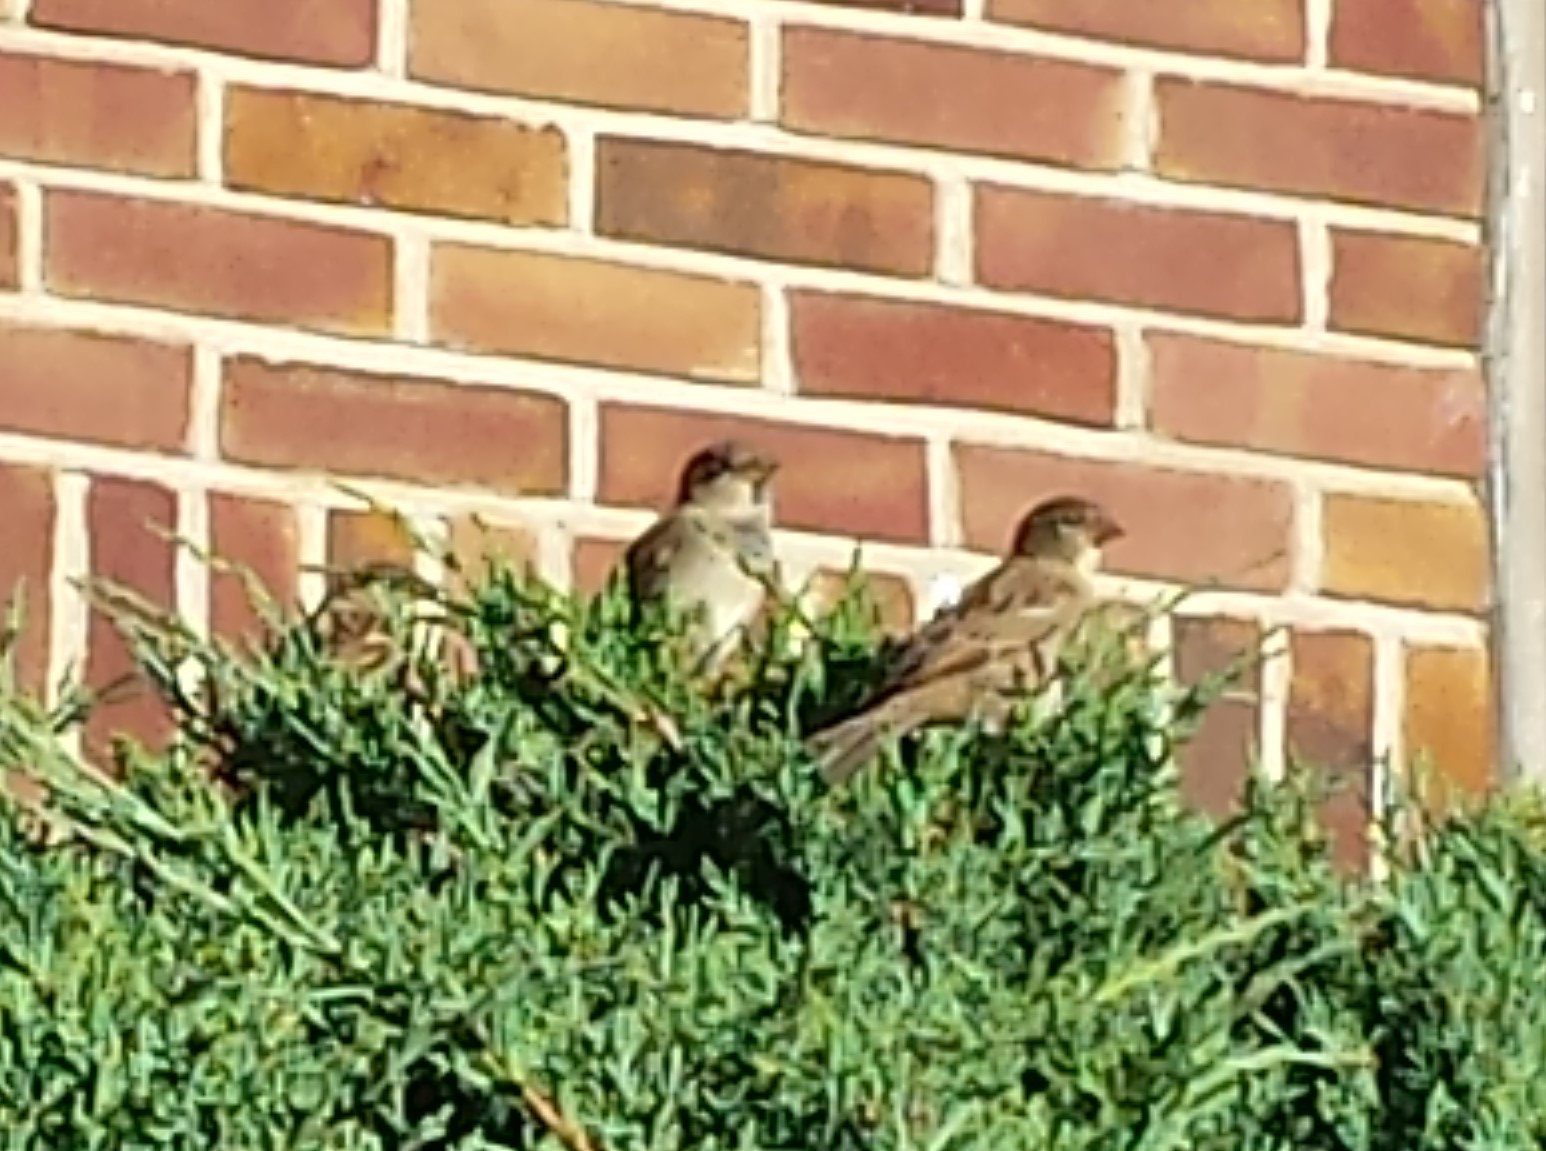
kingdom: Animalia
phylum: Chordata
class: Aves
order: Passeriformes
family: Passeridae
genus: Passer
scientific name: Passer domesticus
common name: House sparrow
